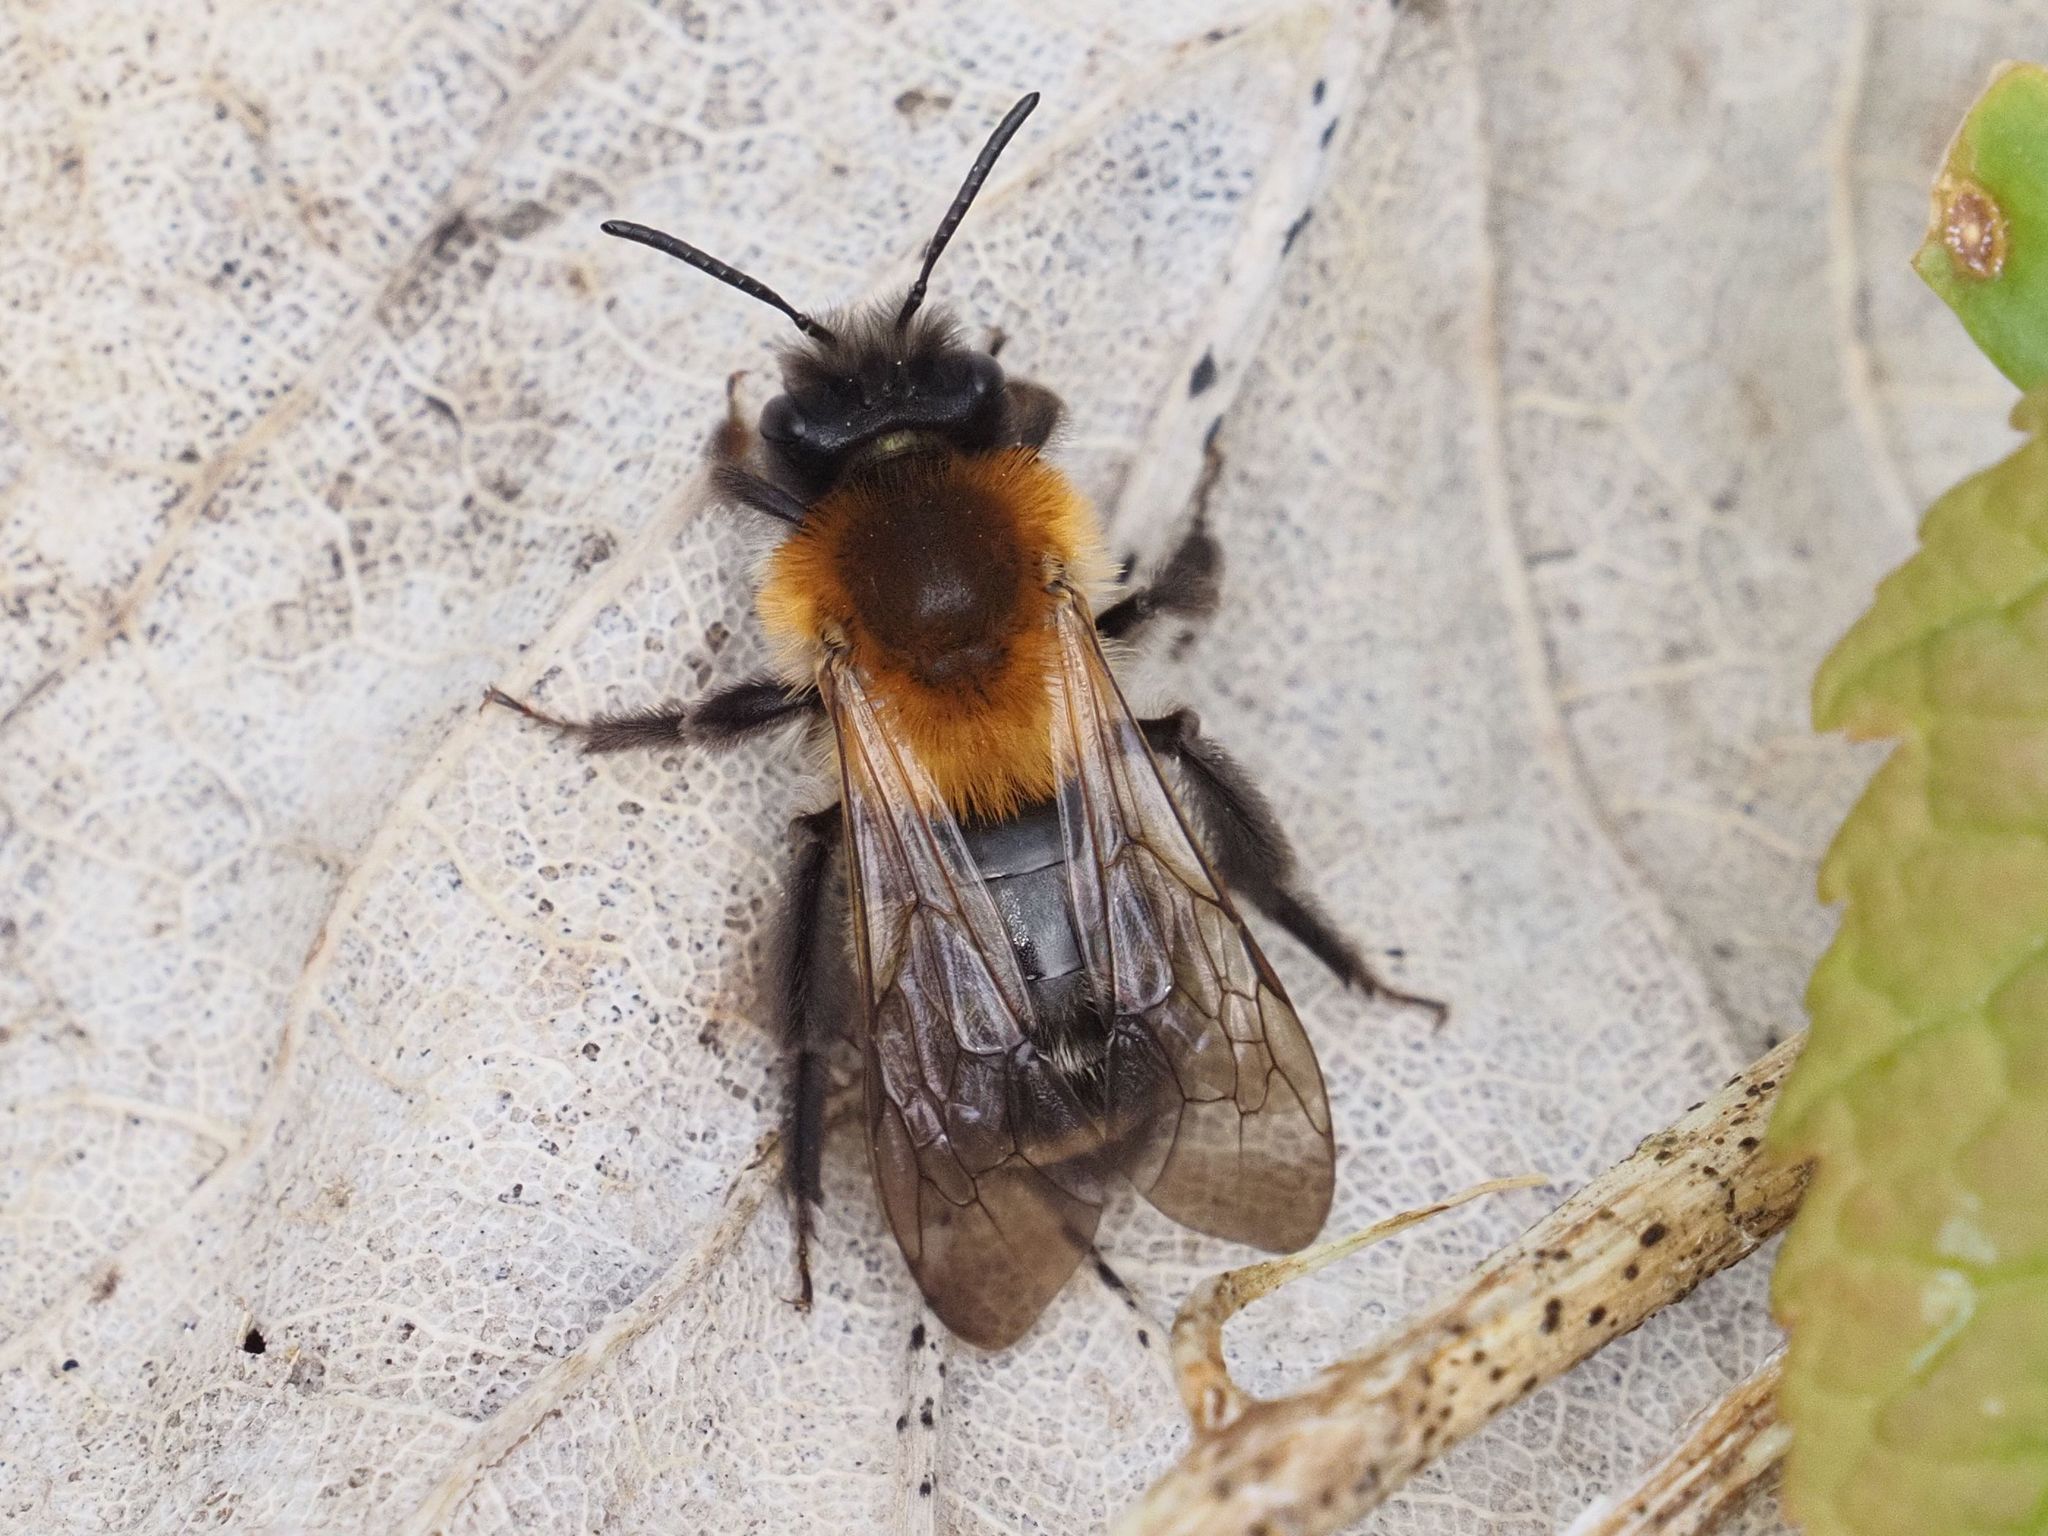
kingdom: Animalia
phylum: Arthropoda
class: Insecta
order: Hymenoptera
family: Andrenidae
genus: Andrena
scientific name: Andrena nitida
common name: Grey-patched mining bee
